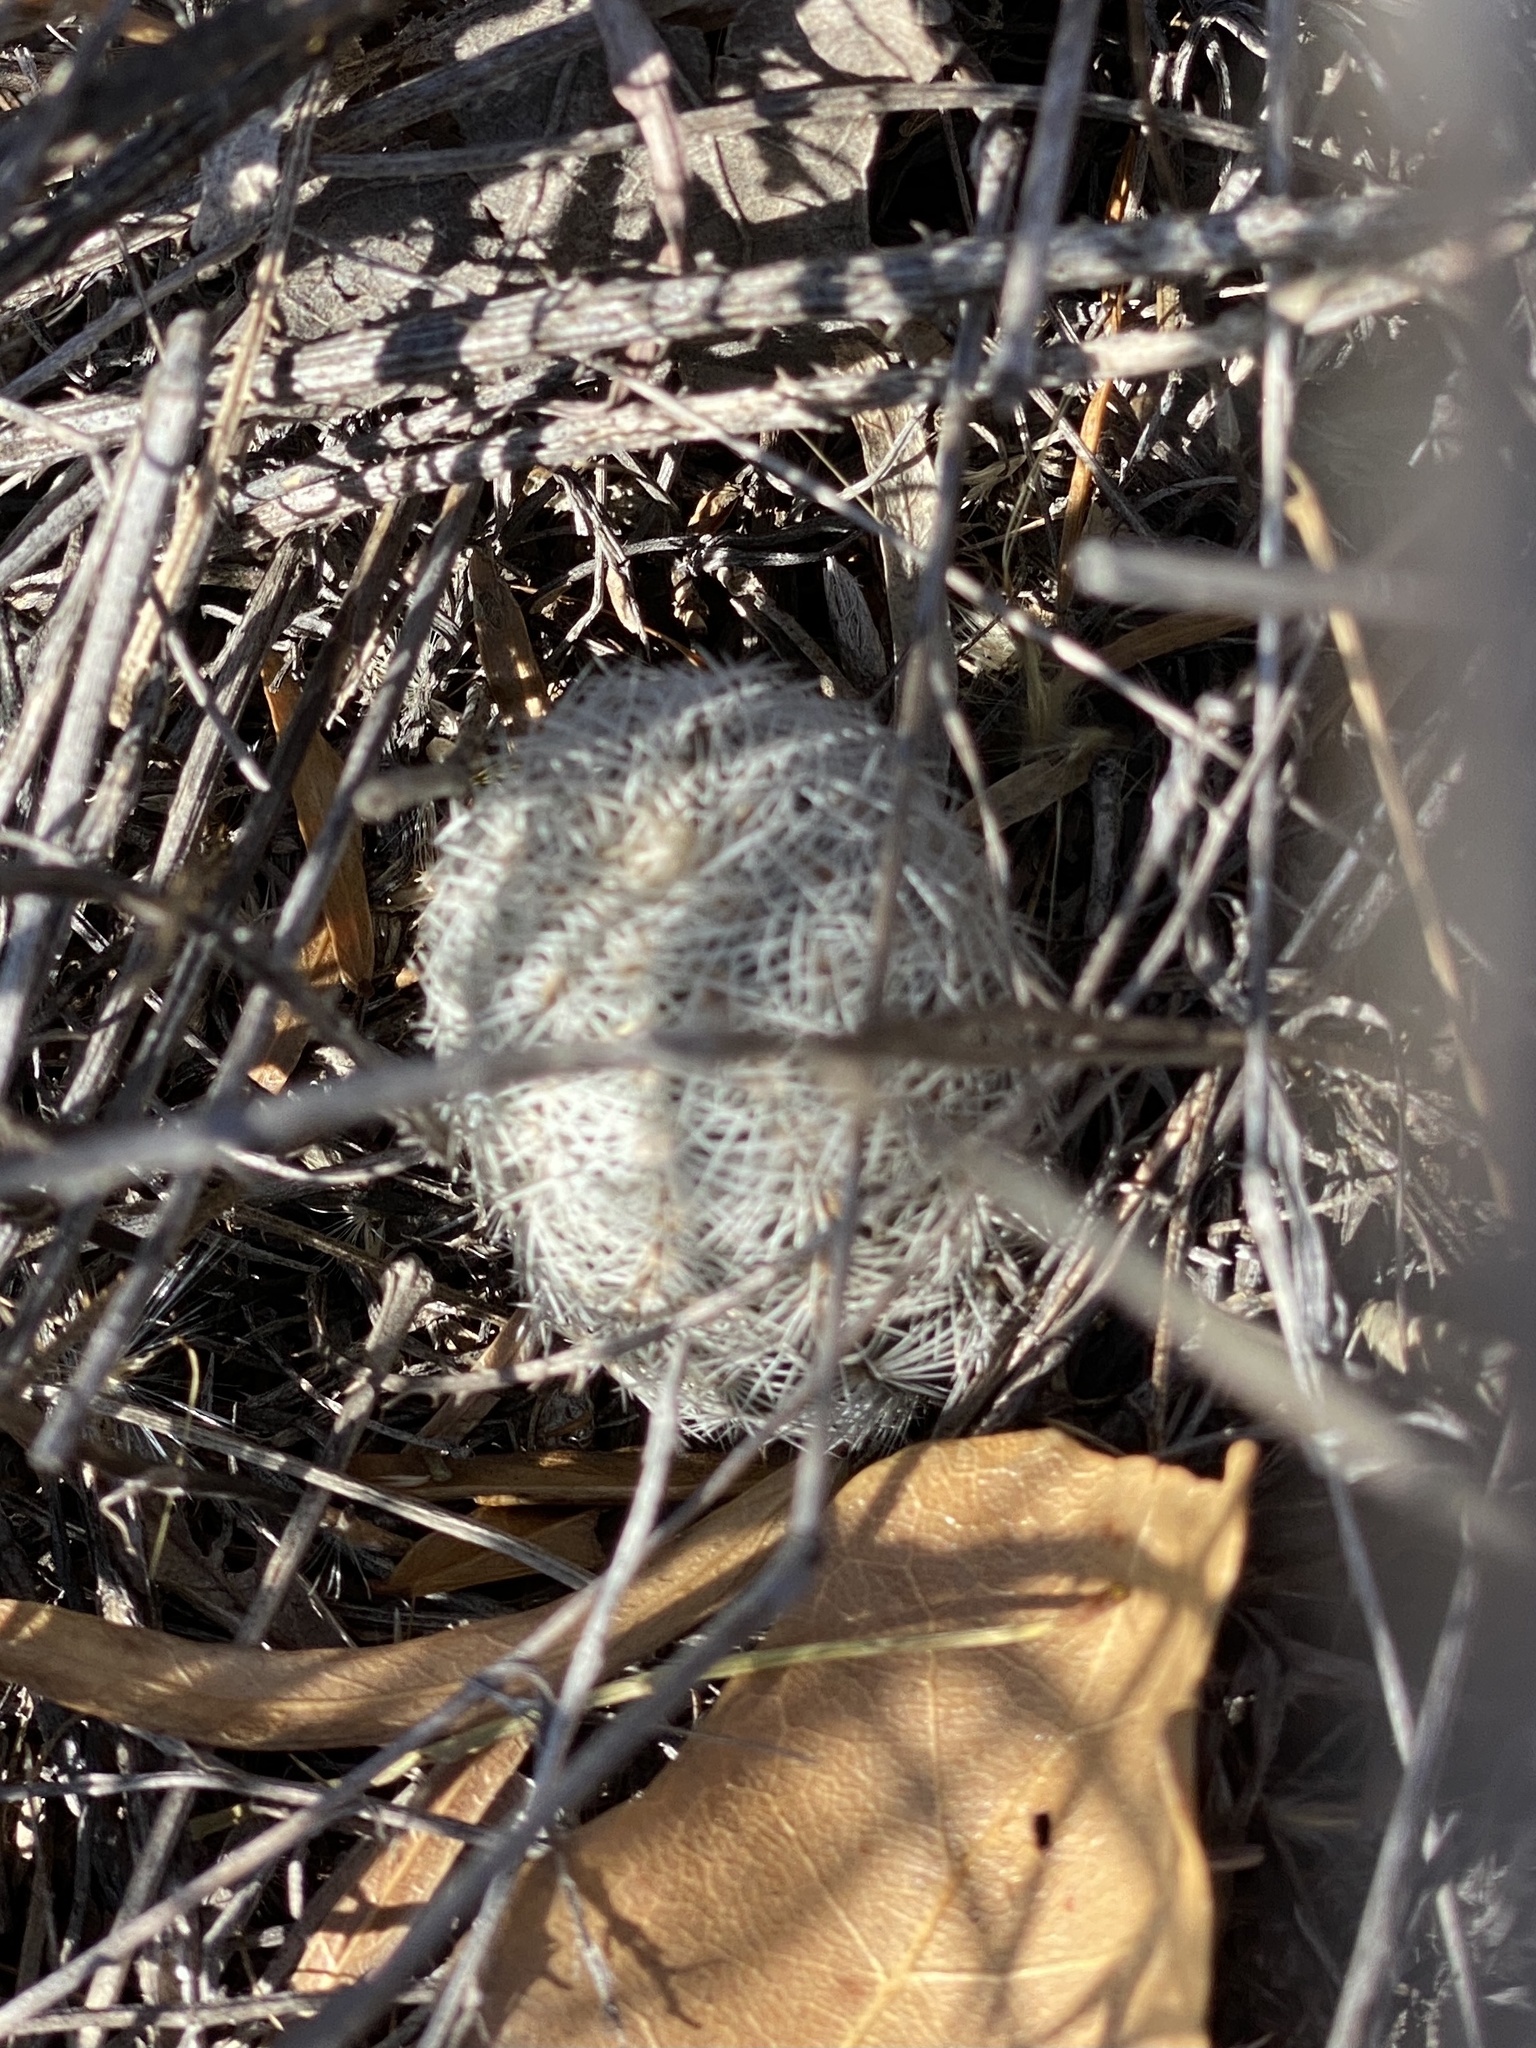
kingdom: Plantae
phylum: Tracheophyta
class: Magnoliopsida
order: Caryophyllales
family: Cactaceae
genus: Echinocereus
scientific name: Echinocereus reichenbachii
